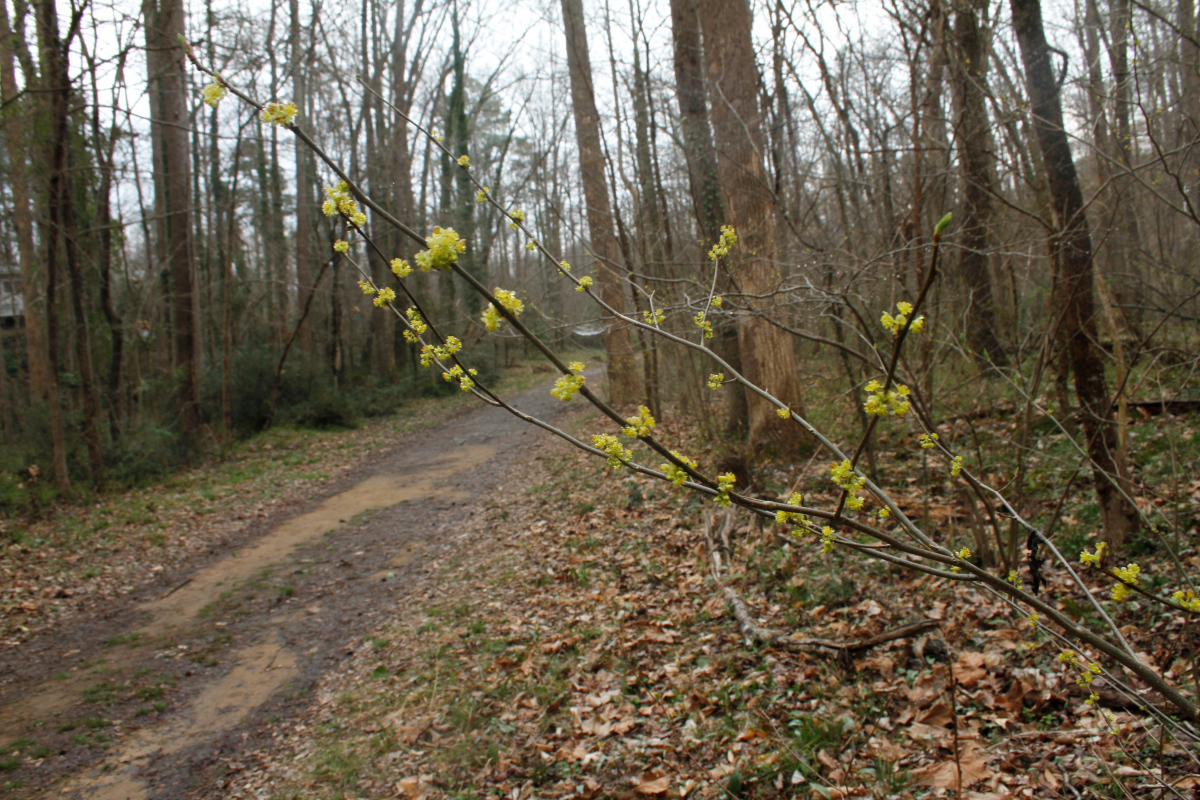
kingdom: Plantae
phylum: Tracheophyta
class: Magnoliopsida
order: Laurales
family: Lauraceae
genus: Lindera
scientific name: Lindera benzoin
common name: Spicebush
